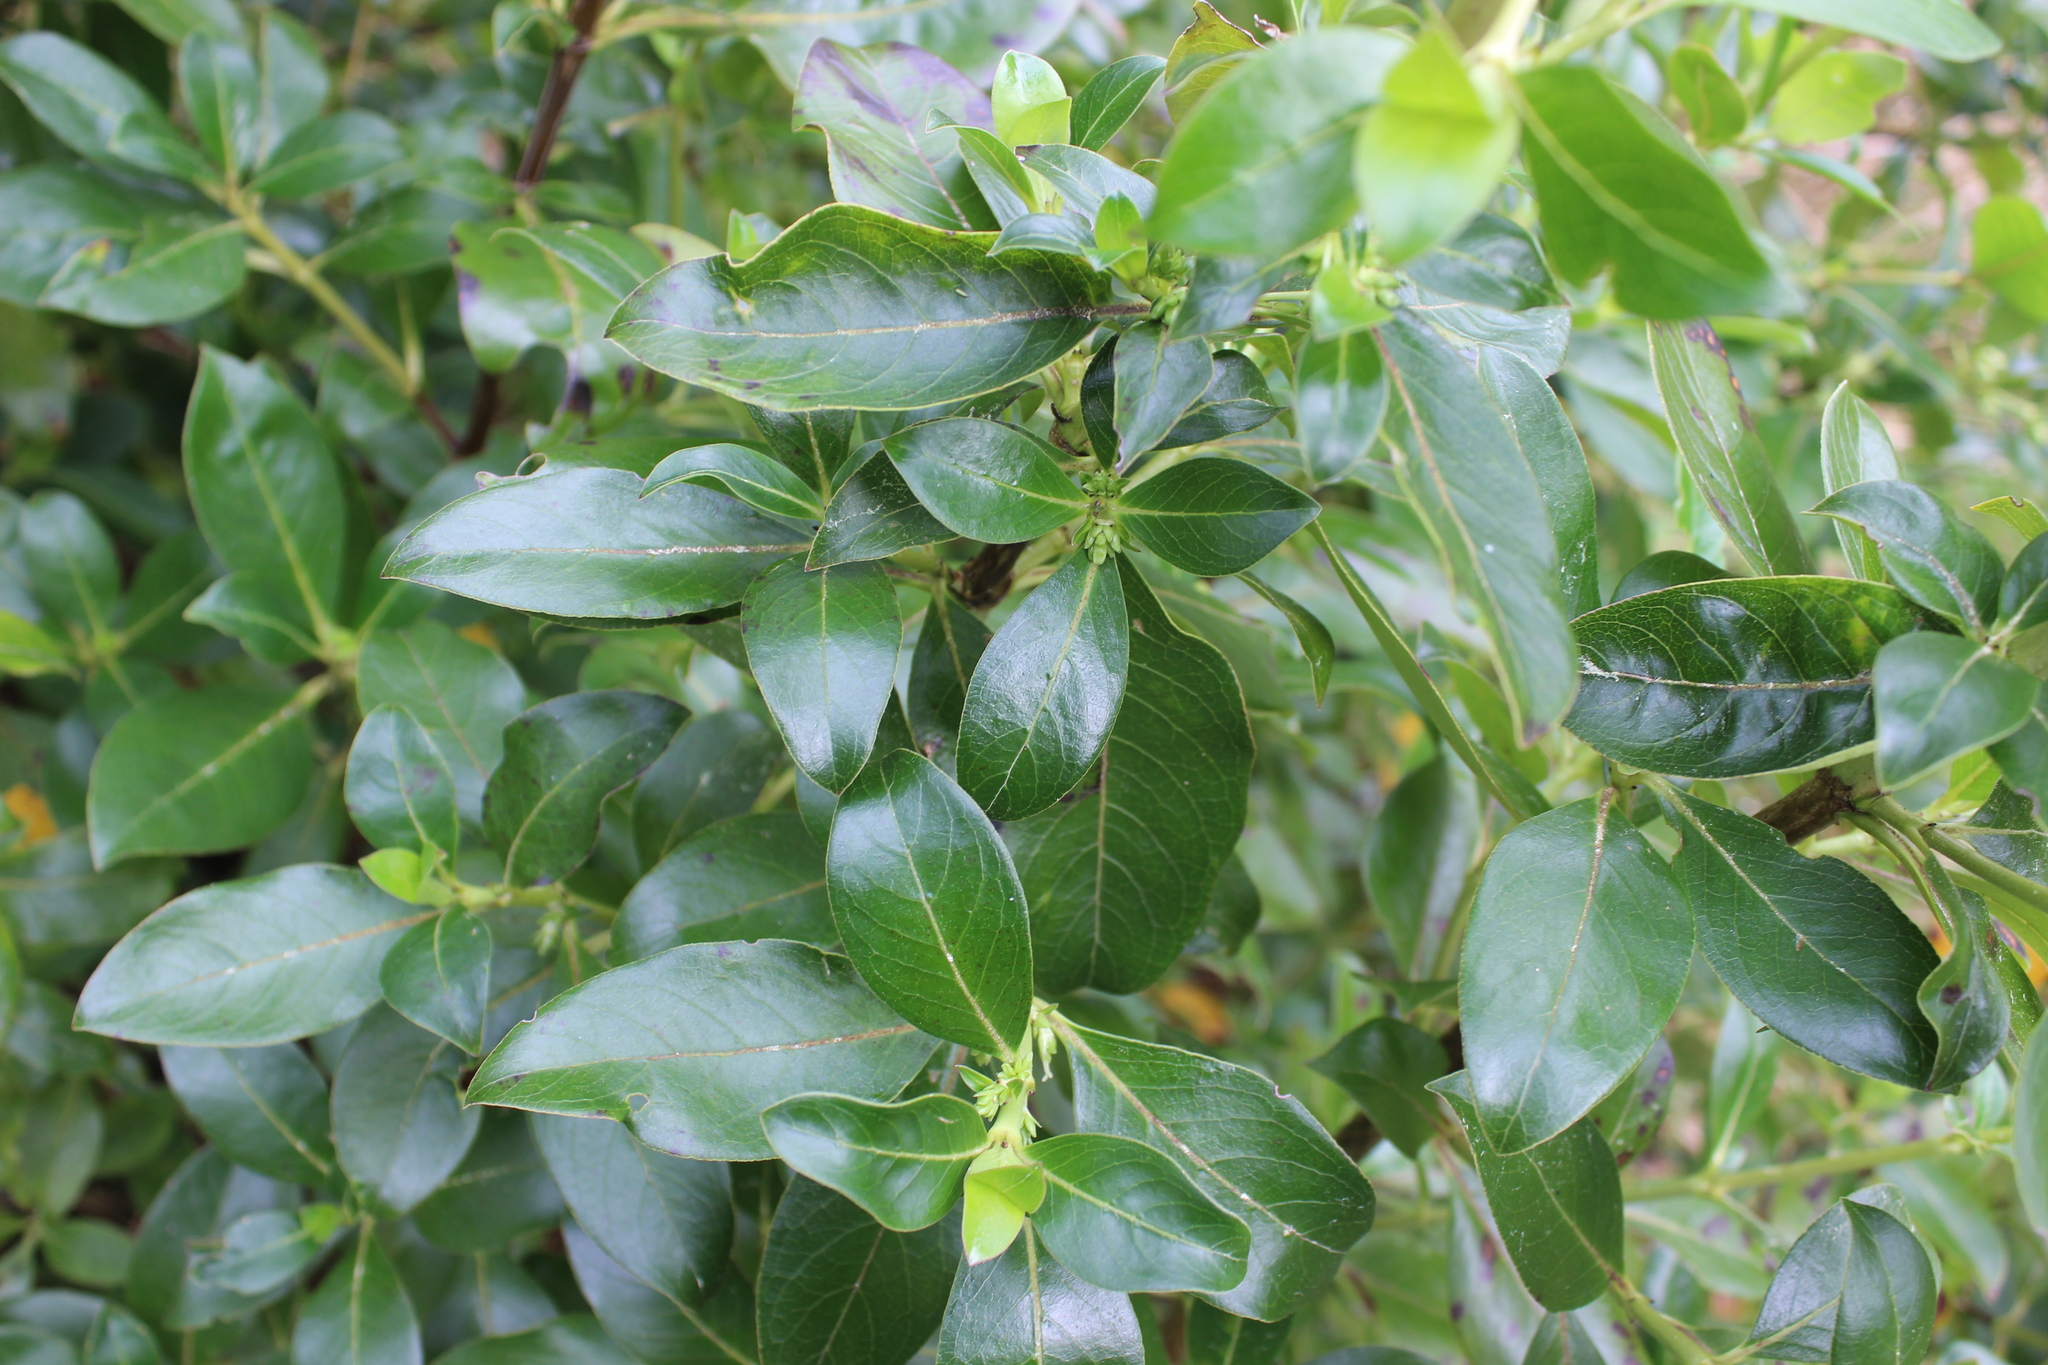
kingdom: Plantae
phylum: Tracheophyta
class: Magnoliopsida
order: Gentianales
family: Rubiaceae
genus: Coprosma
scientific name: Coprosma robusta
